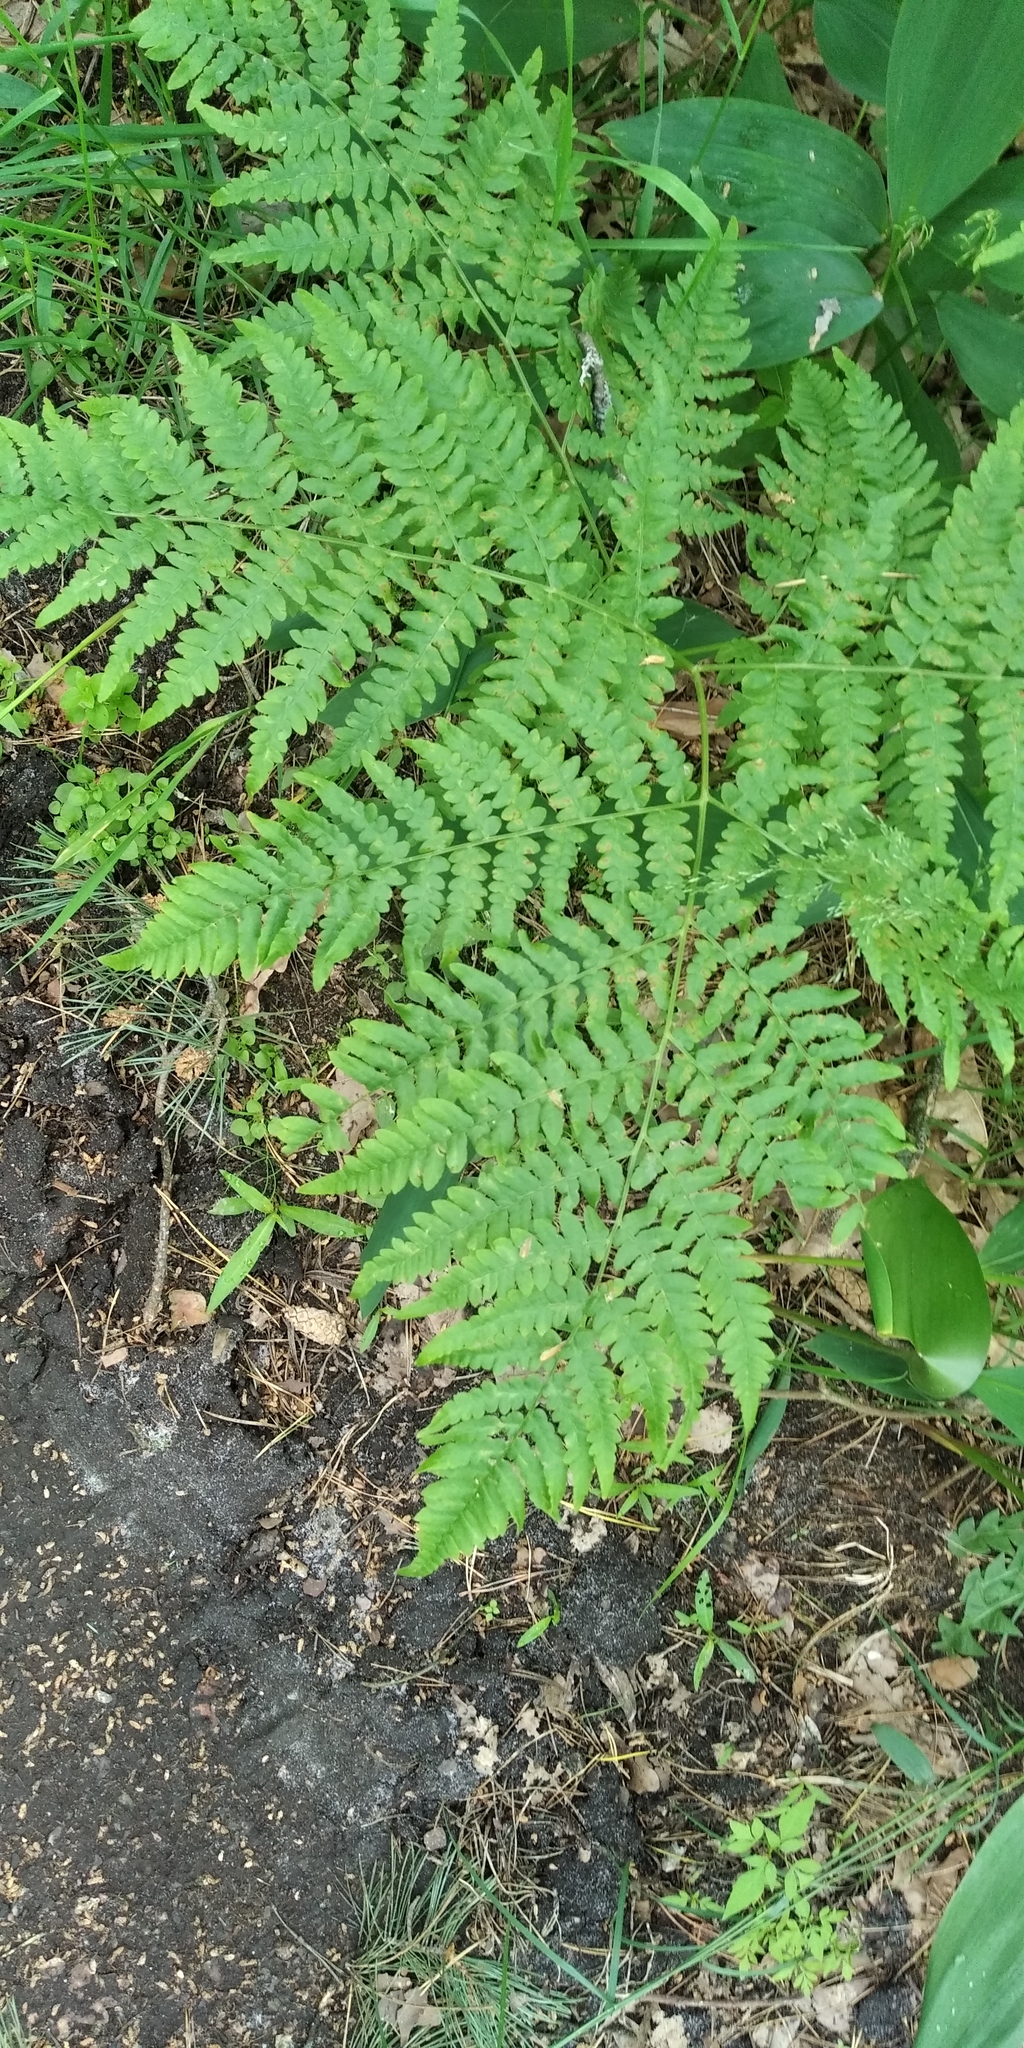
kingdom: Plantae
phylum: Tracheophyta
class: Polypodiopsida
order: Polypodiales
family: Dennstaedtiaceae
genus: Pteridium
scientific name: Pteridium aquilinum
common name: Bracken
